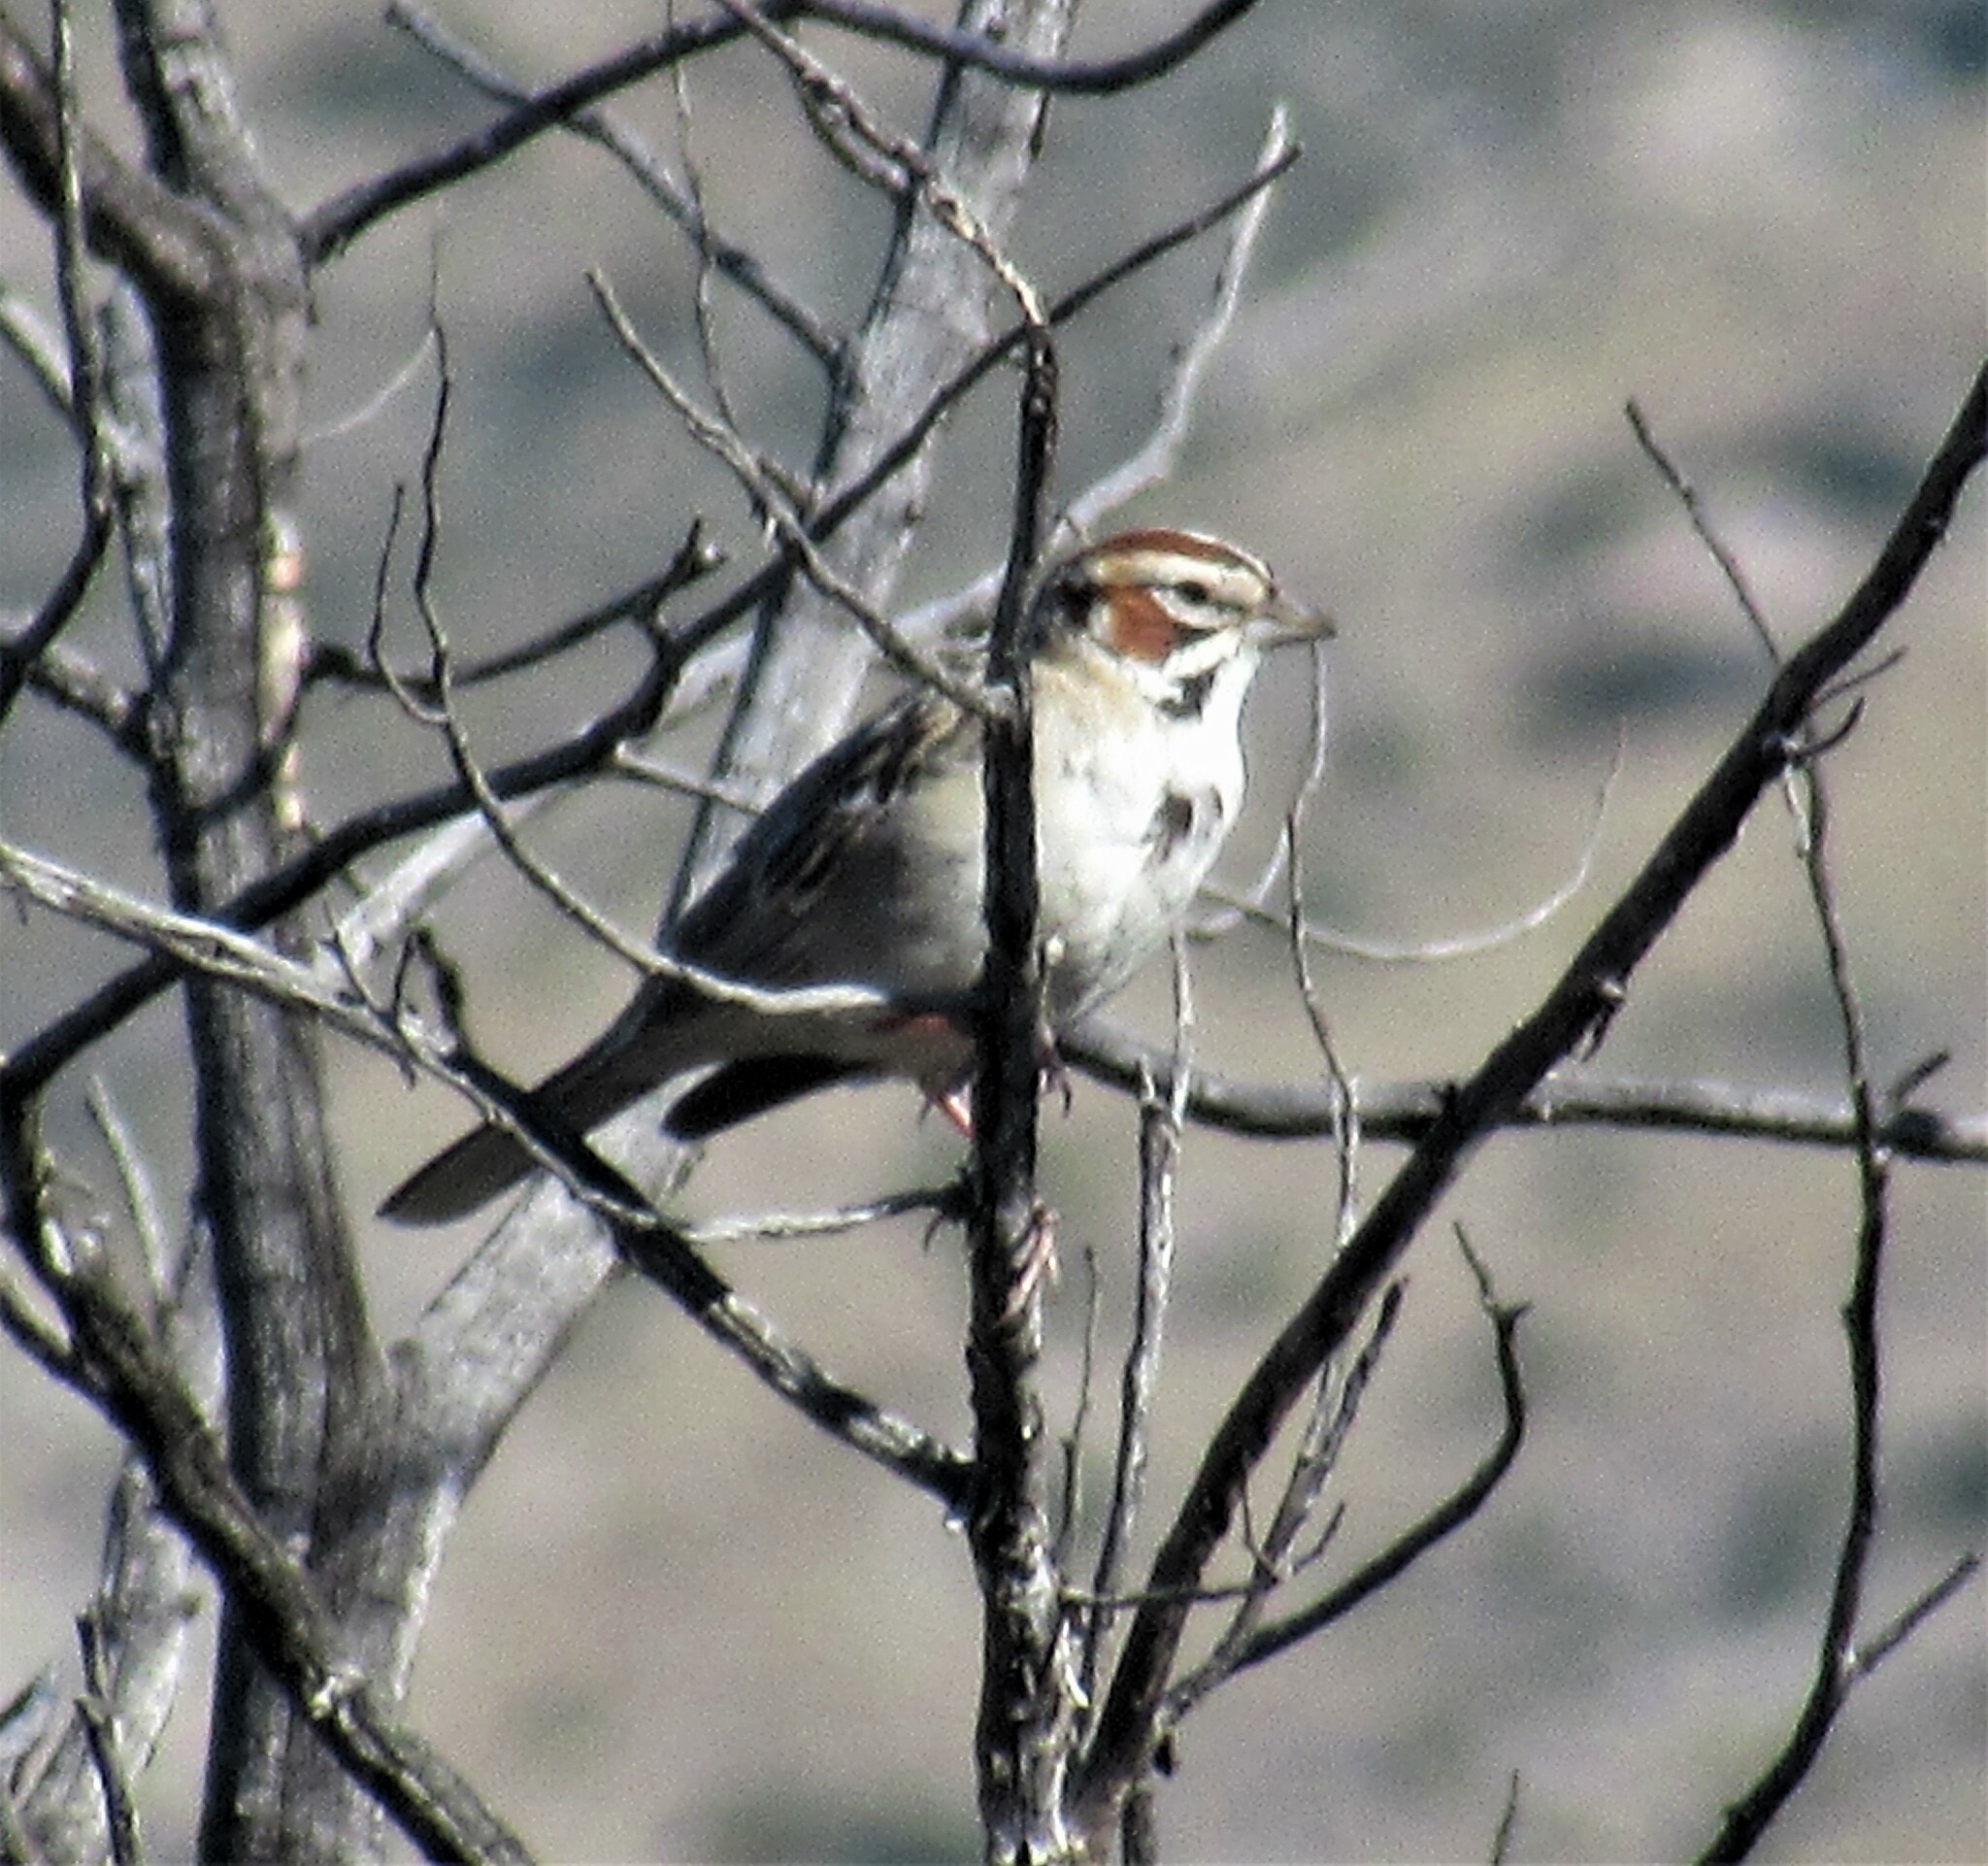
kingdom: Animalia
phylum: Chordata
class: Aves
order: Passeriformes
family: Passerellidae
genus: Chondestes
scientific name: Chondestes grammacus
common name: Lark sparrow
